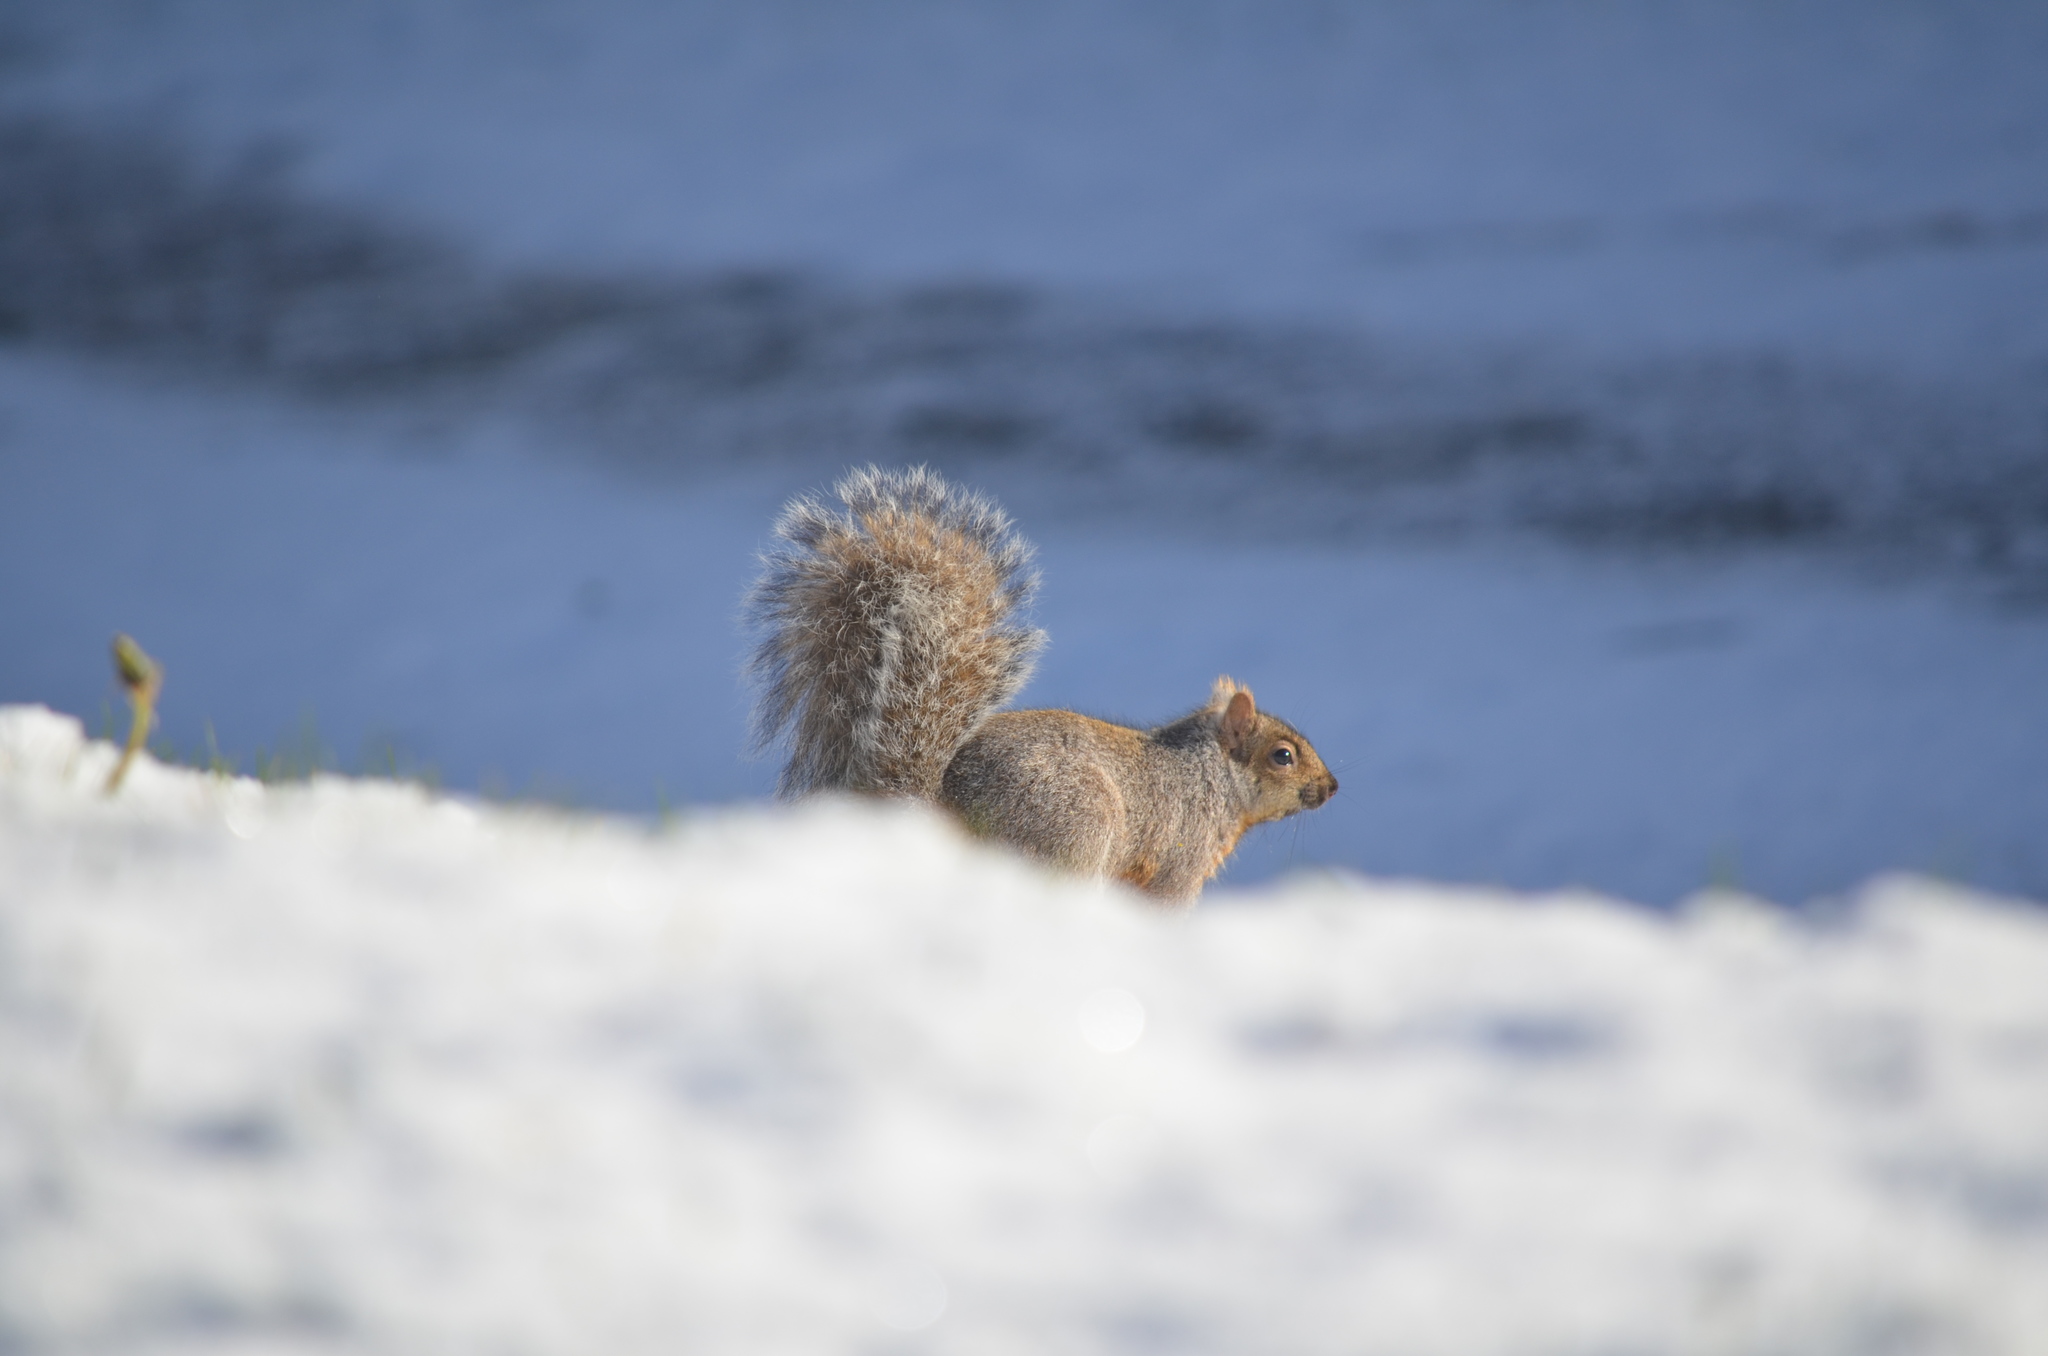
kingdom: Animalia
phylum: Chordata
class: Mammalia
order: Rodentia
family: Sciuridae
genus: Sciurus
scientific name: Sciurus carolinensis
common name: Eastern gray squirrel
